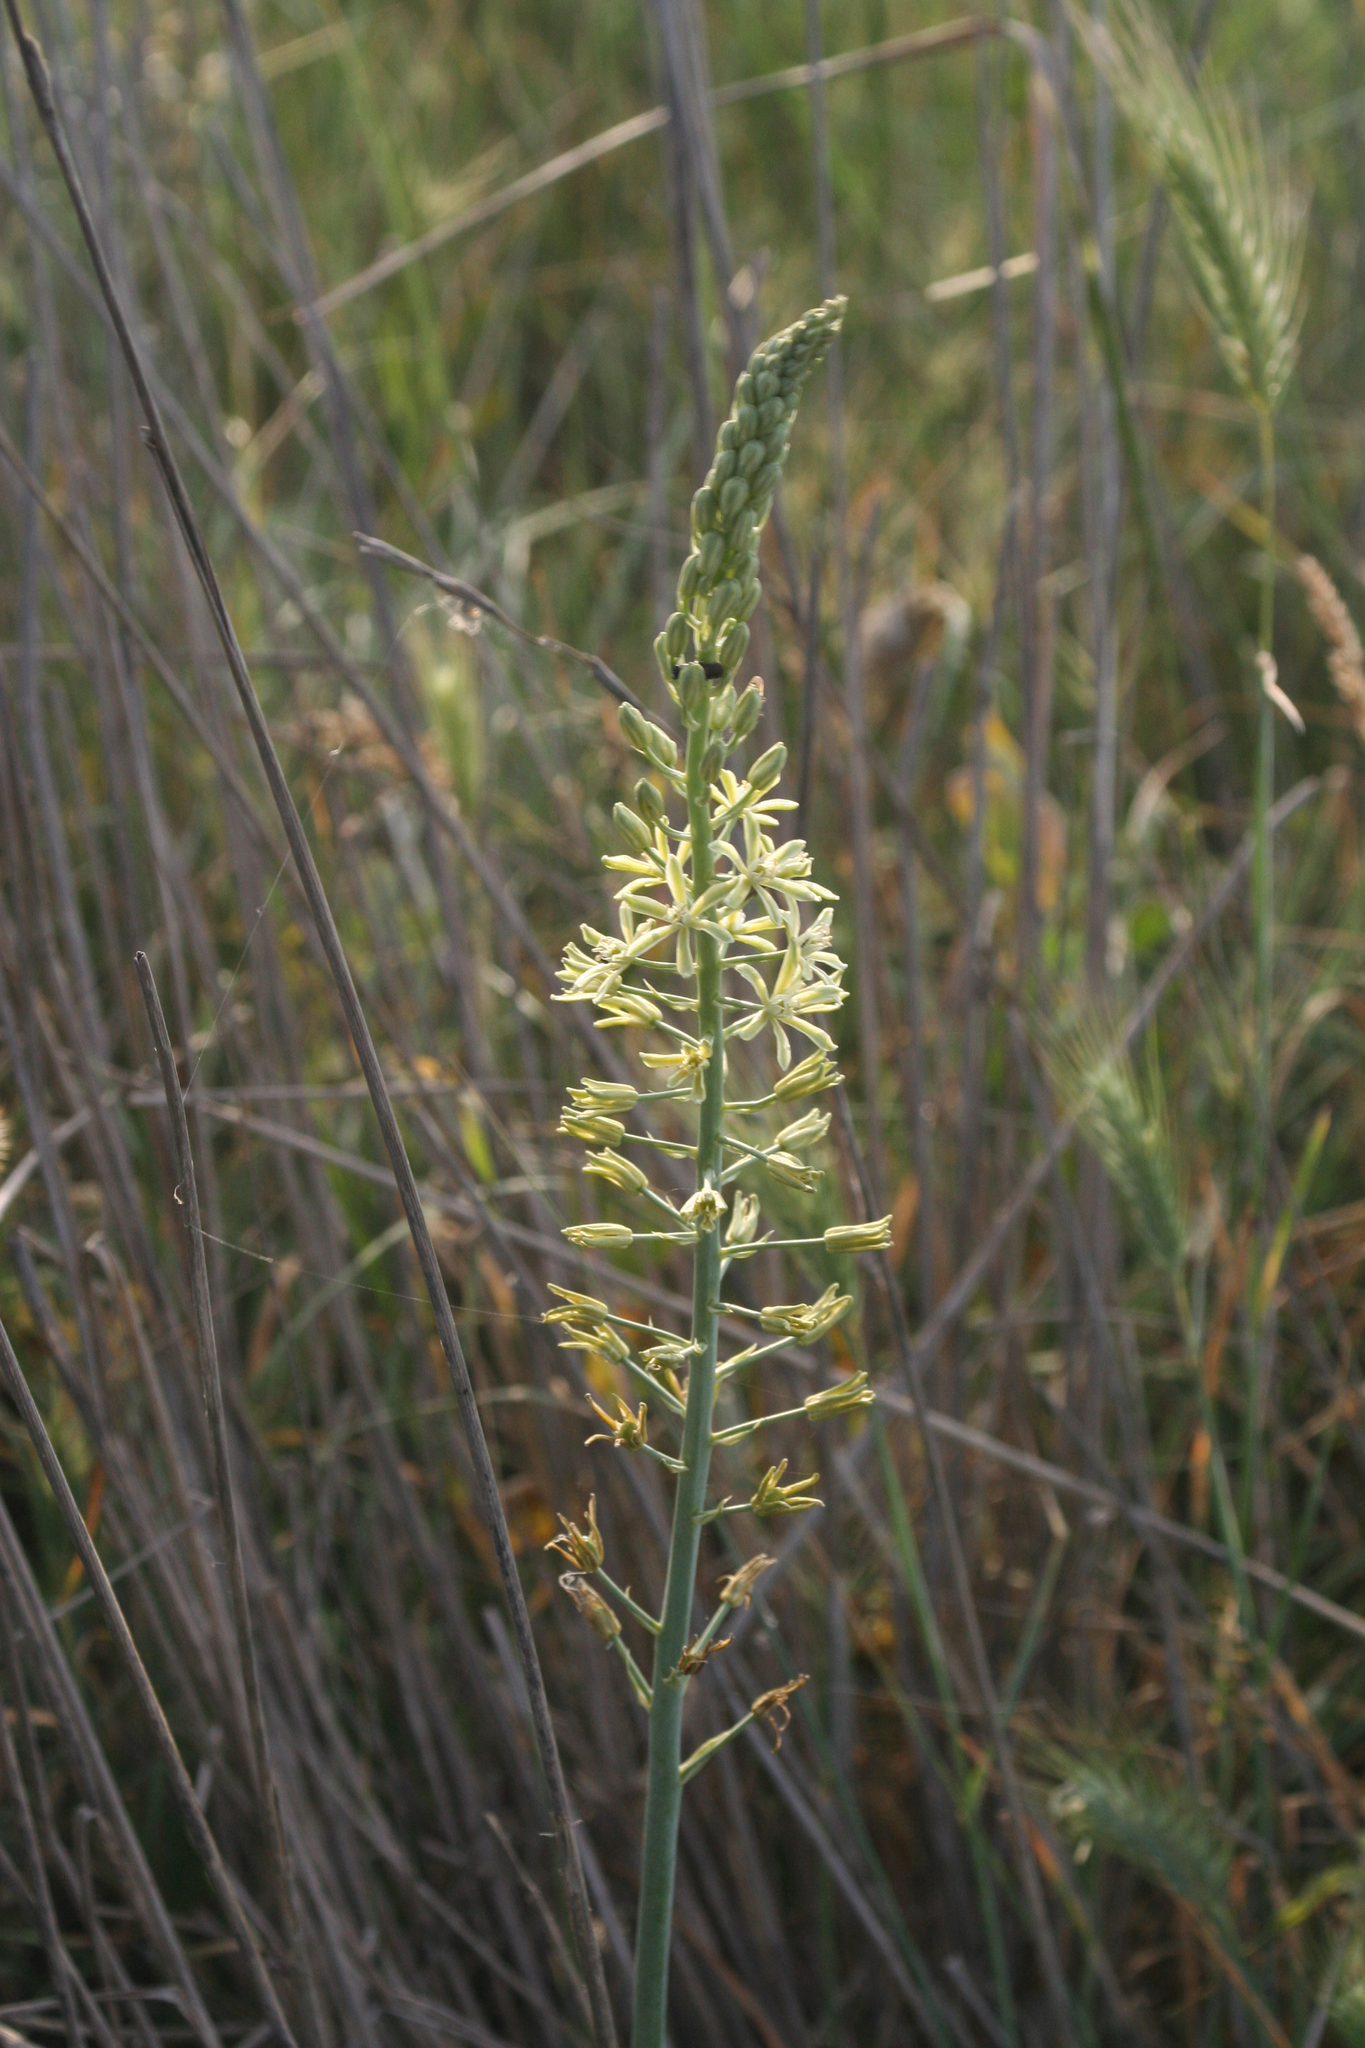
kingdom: Plantae
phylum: Tracheophyta
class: Liliopsida
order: Asparagales
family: Asparagaceae
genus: Ornithogalum
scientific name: Ornithogalum pyrenaicum
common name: Spiked star-of-bethlehem
